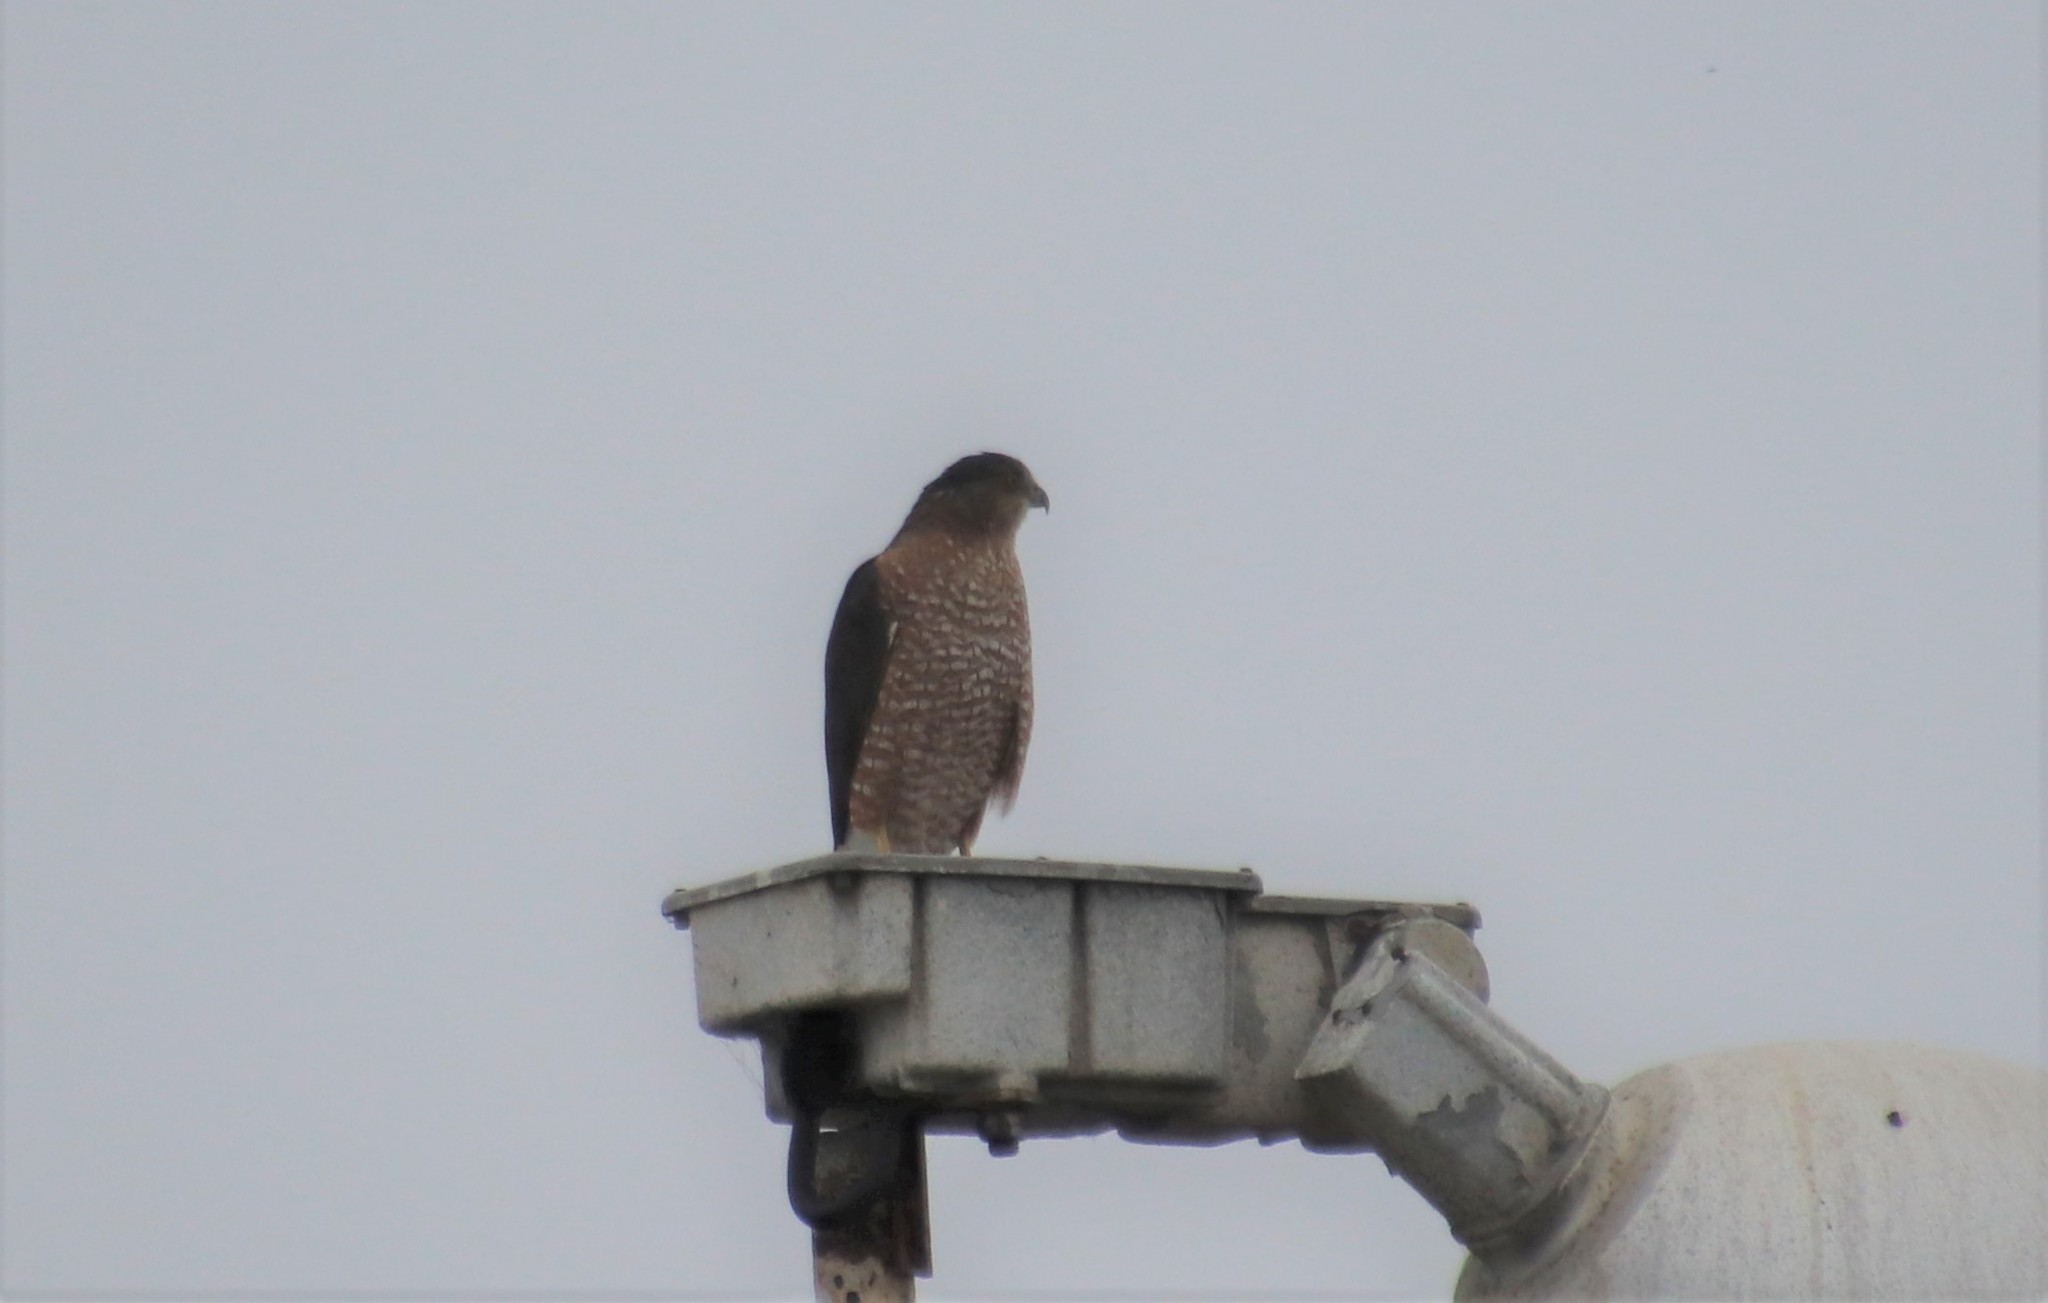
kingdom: Animalia
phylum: Chordata
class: Aves
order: Accipitriformes
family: Accipitridae
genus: Accipiter
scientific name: Accipiter cooperii
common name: Cooper's hawk
